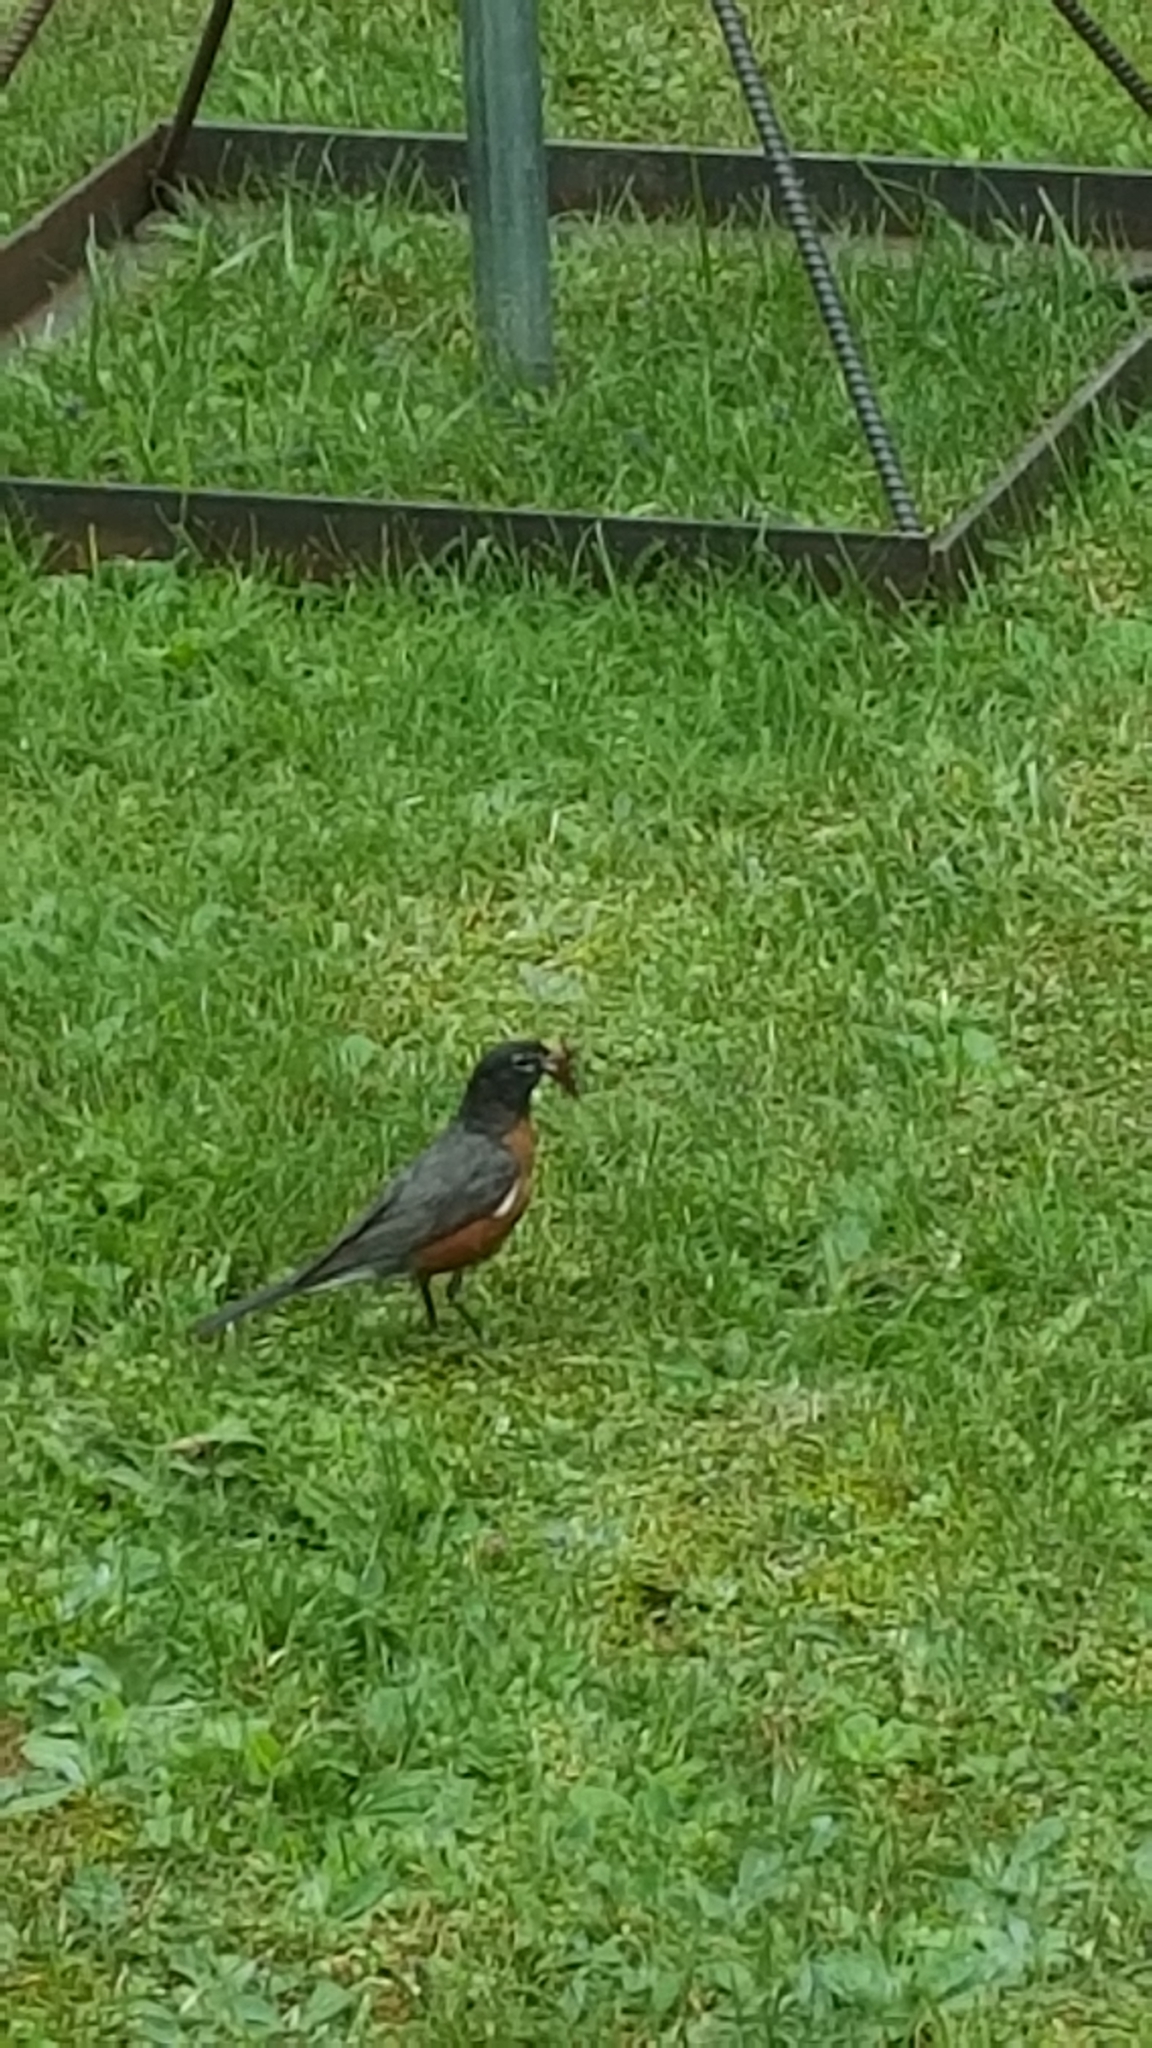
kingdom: Animalia
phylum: Chordata
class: Aves
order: Passeriformes
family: Turdidae
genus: Turdus
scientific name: Turdus migratorius
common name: American robin
